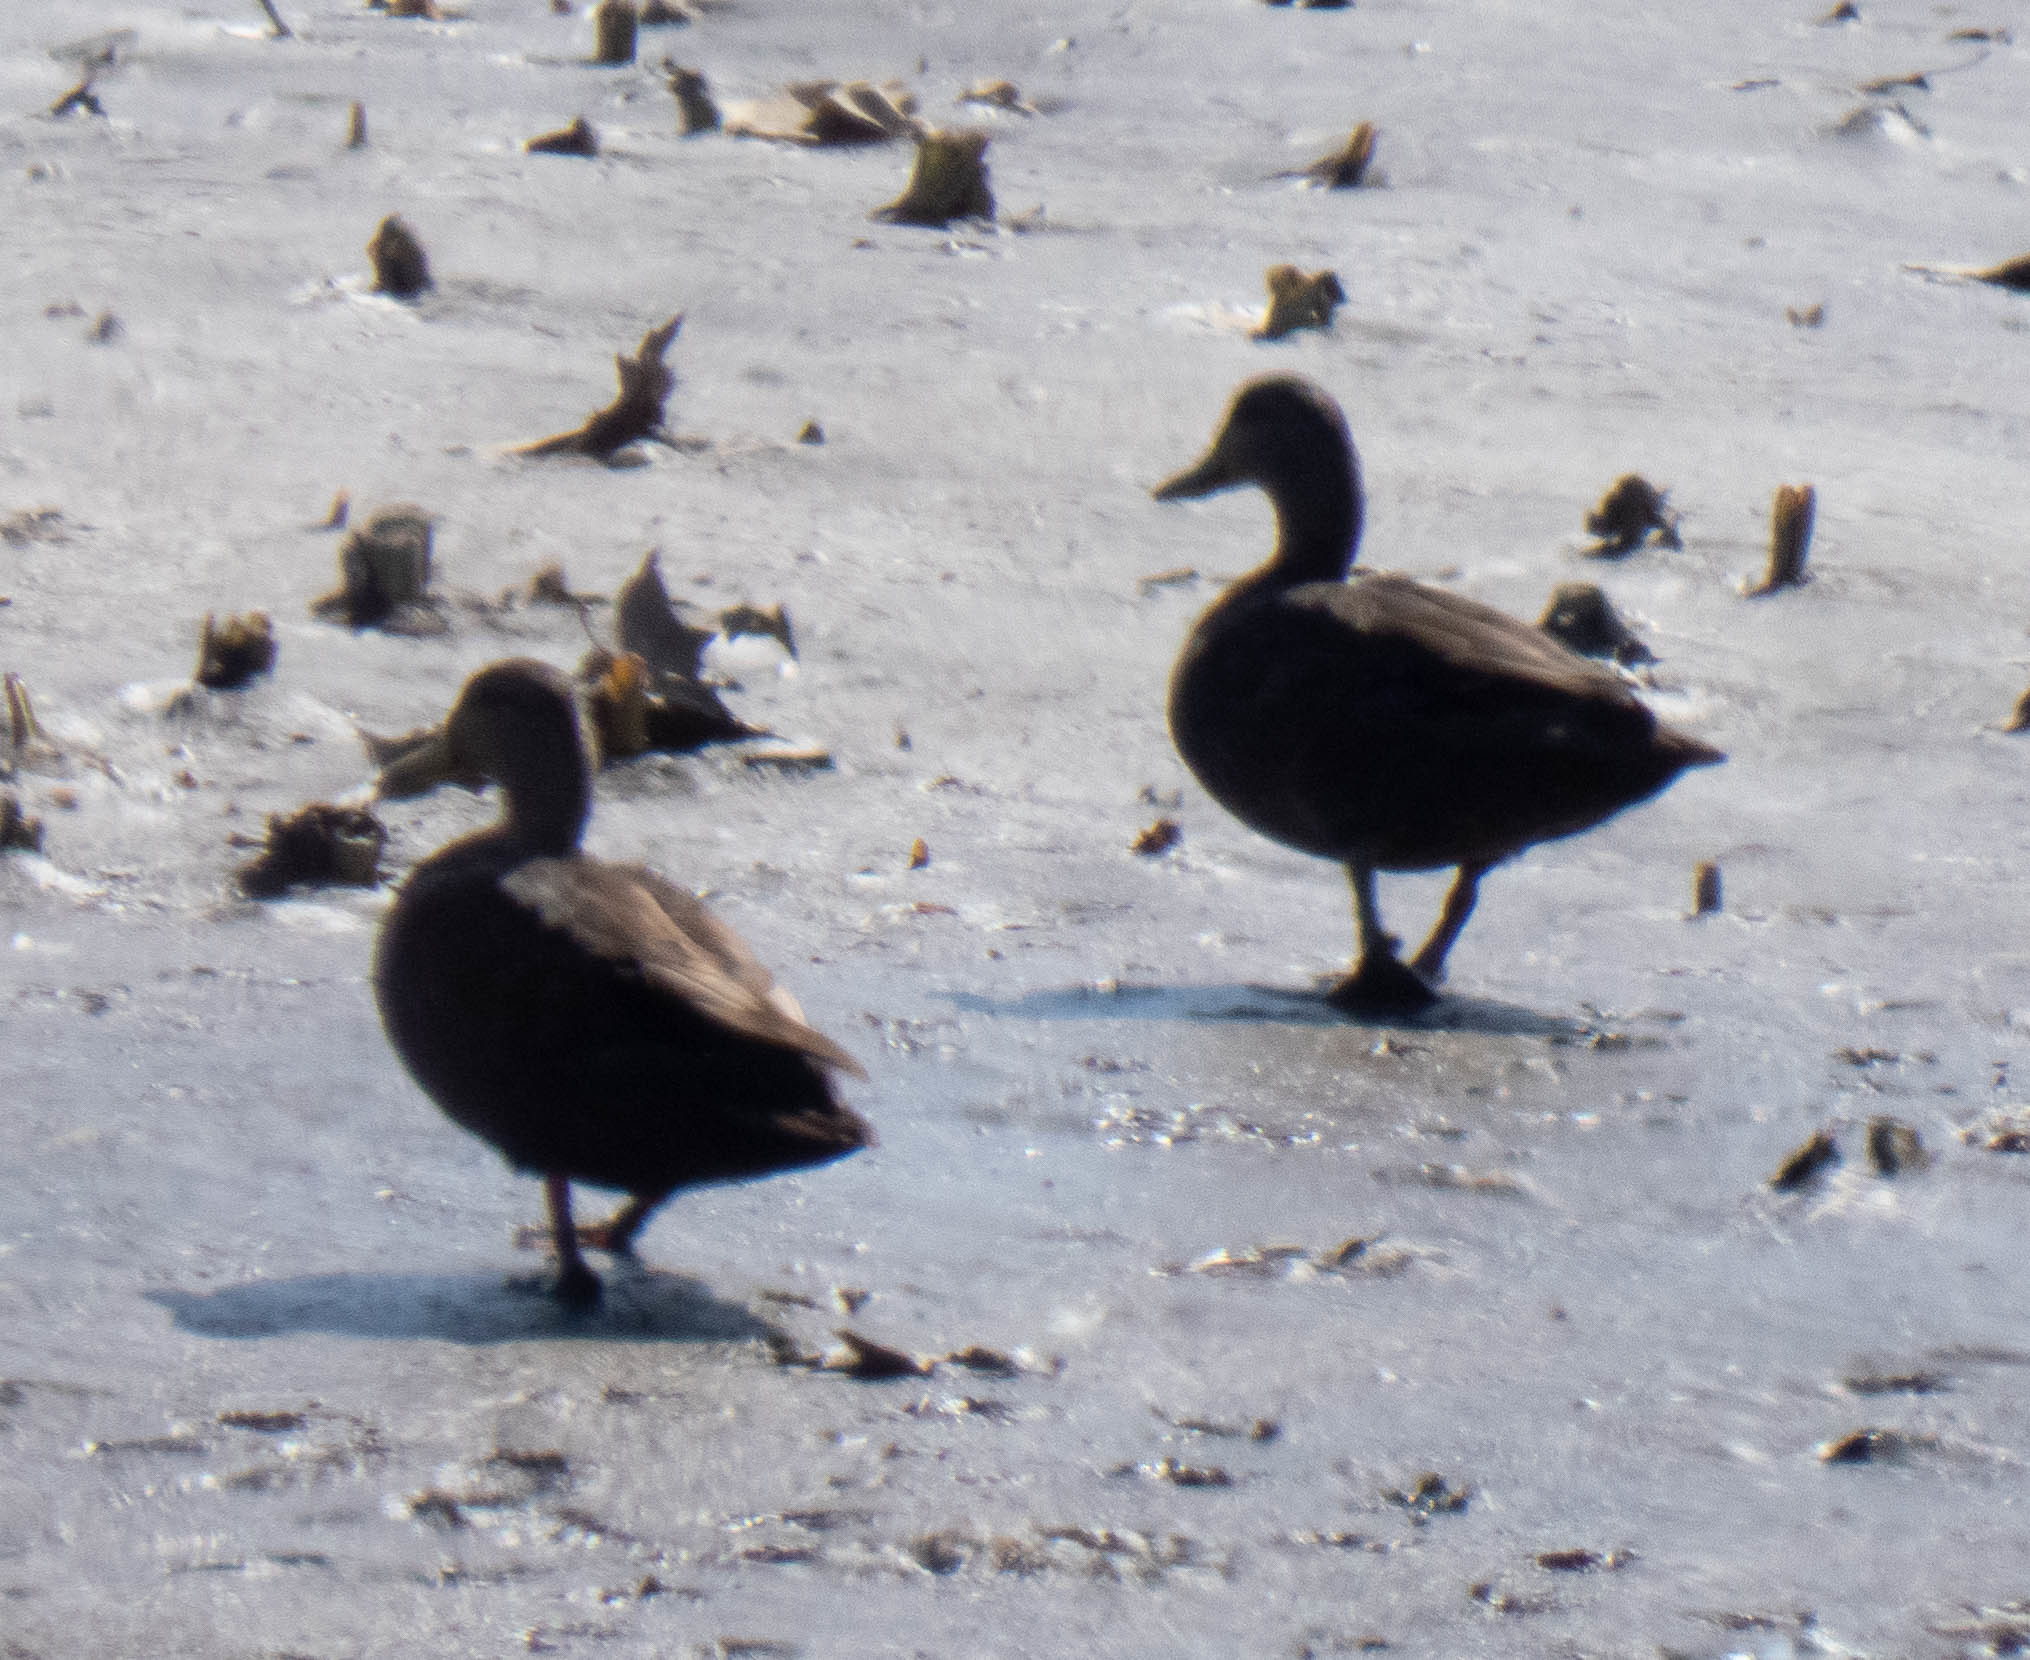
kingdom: Animalia
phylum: Chordata
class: Aves
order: Anseriformes
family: Anatidae
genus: Anas
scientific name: Anas rubripes
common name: American black duck
